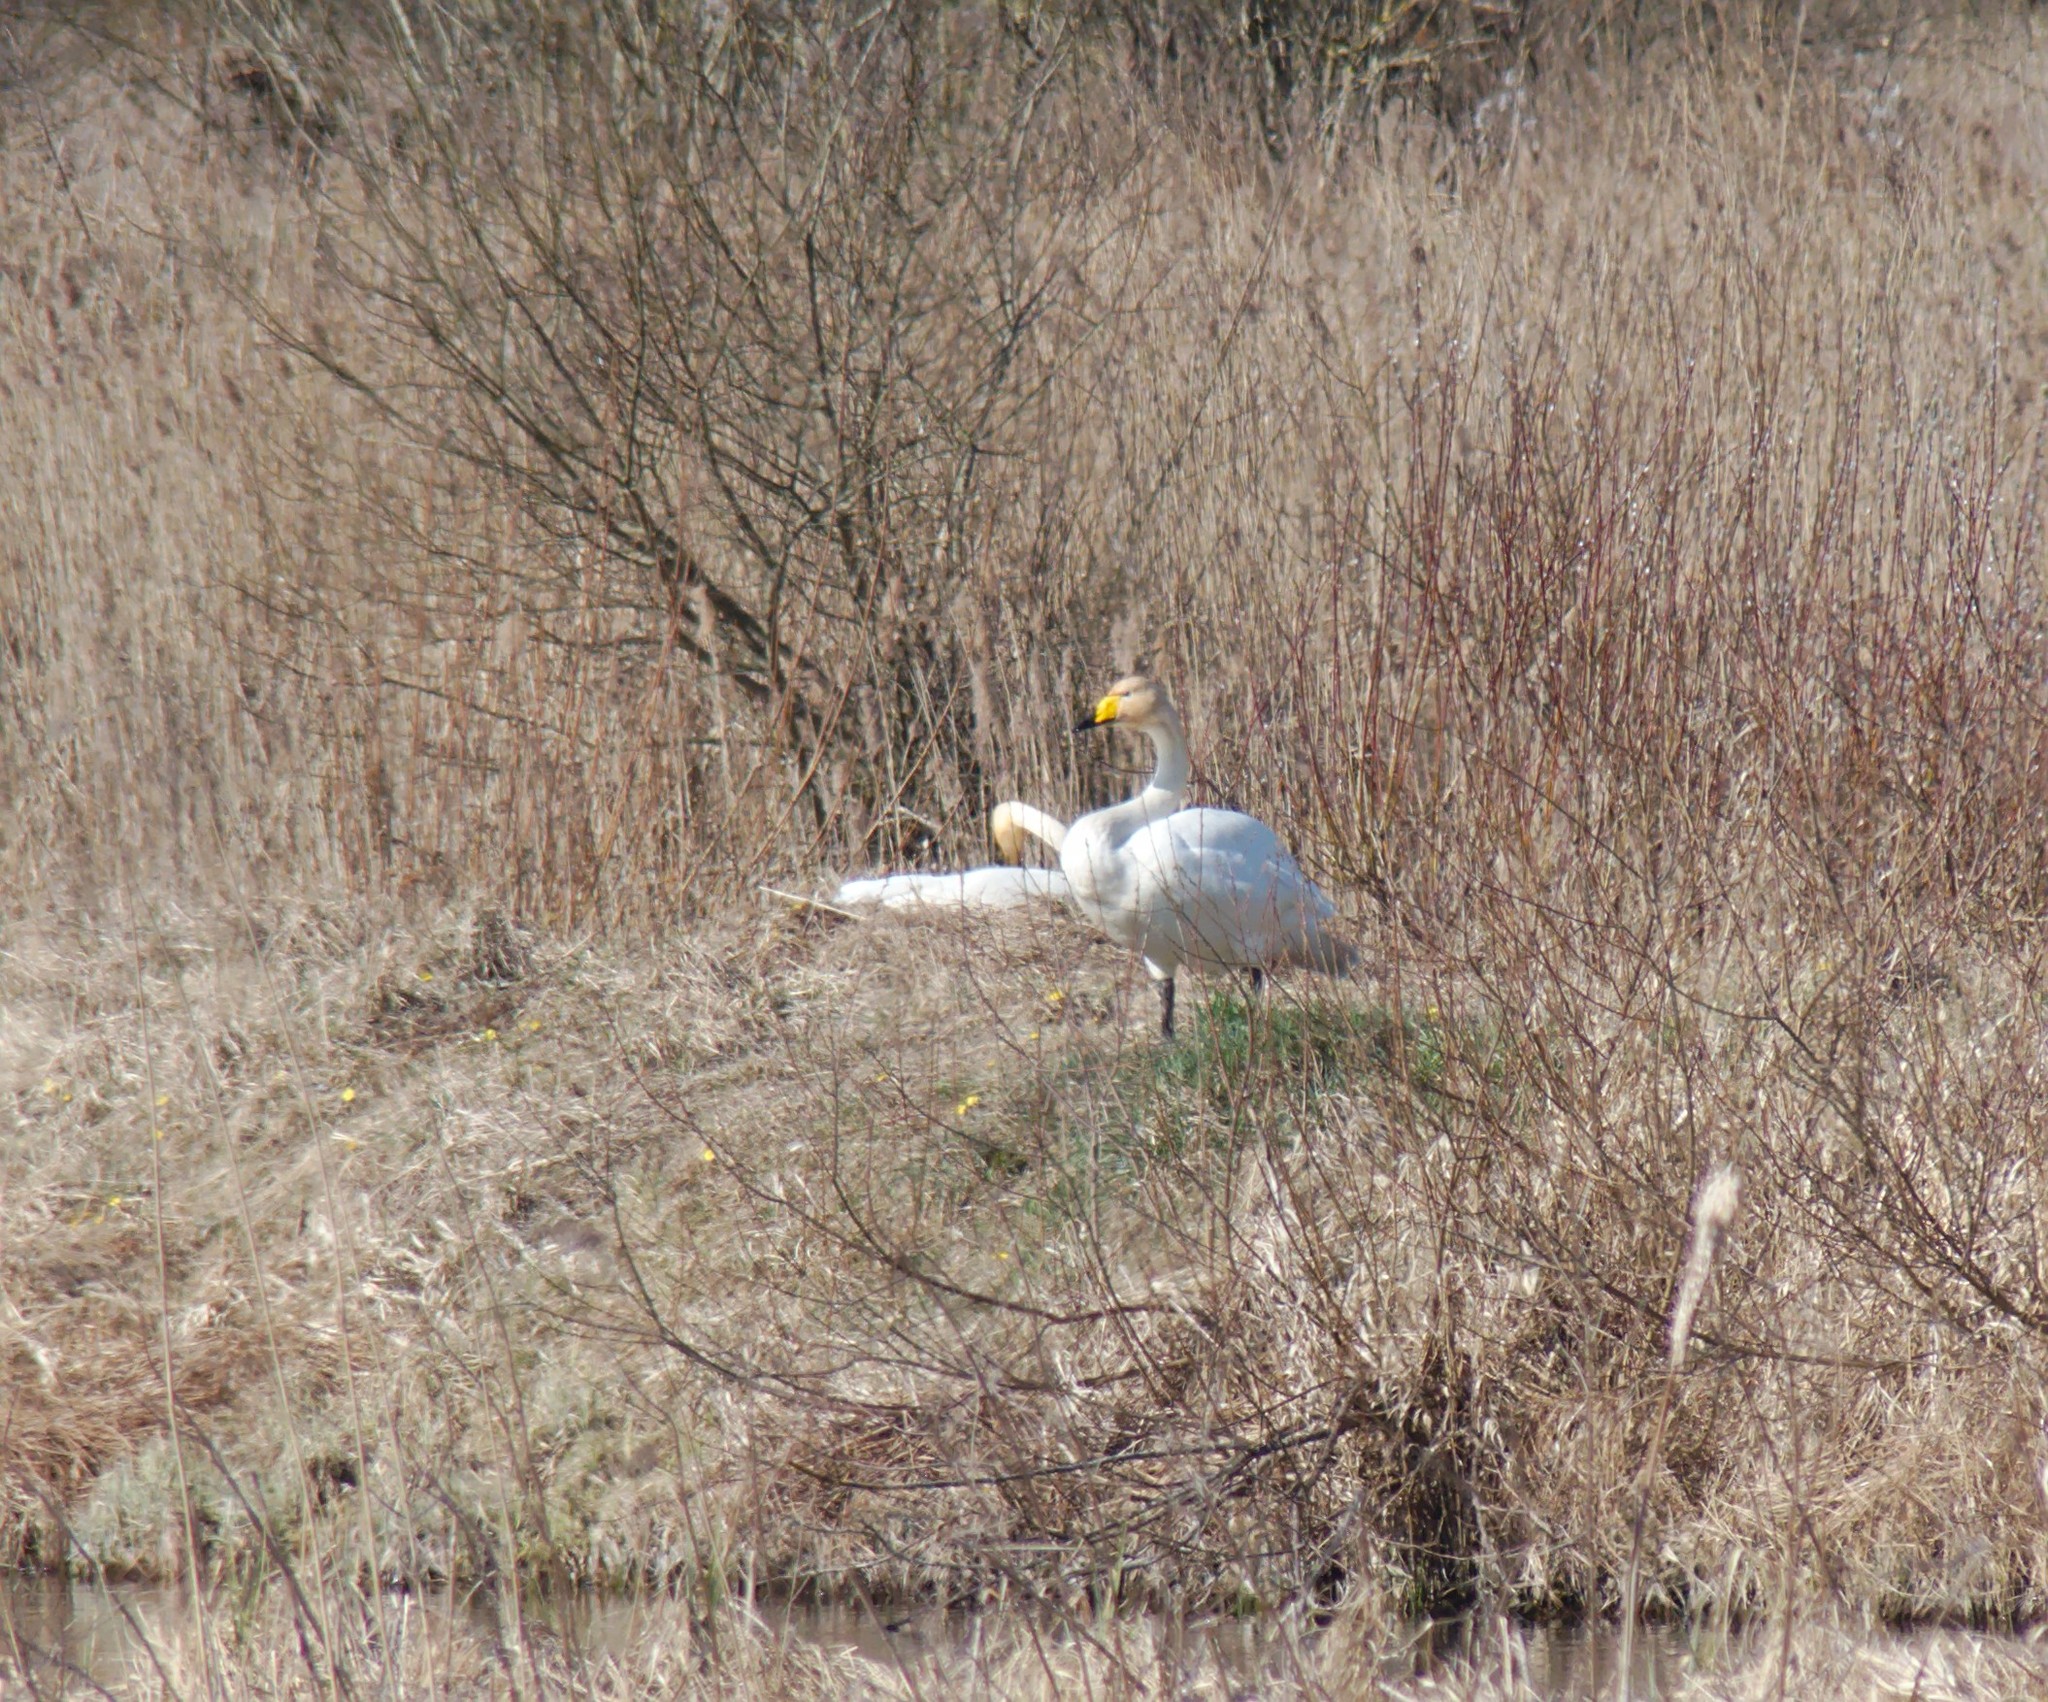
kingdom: Animalia
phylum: Chordata
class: Aves
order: Anseriformes
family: Anatidae
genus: Cygnus
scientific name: Cygnus cygnus
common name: Whooper swan
